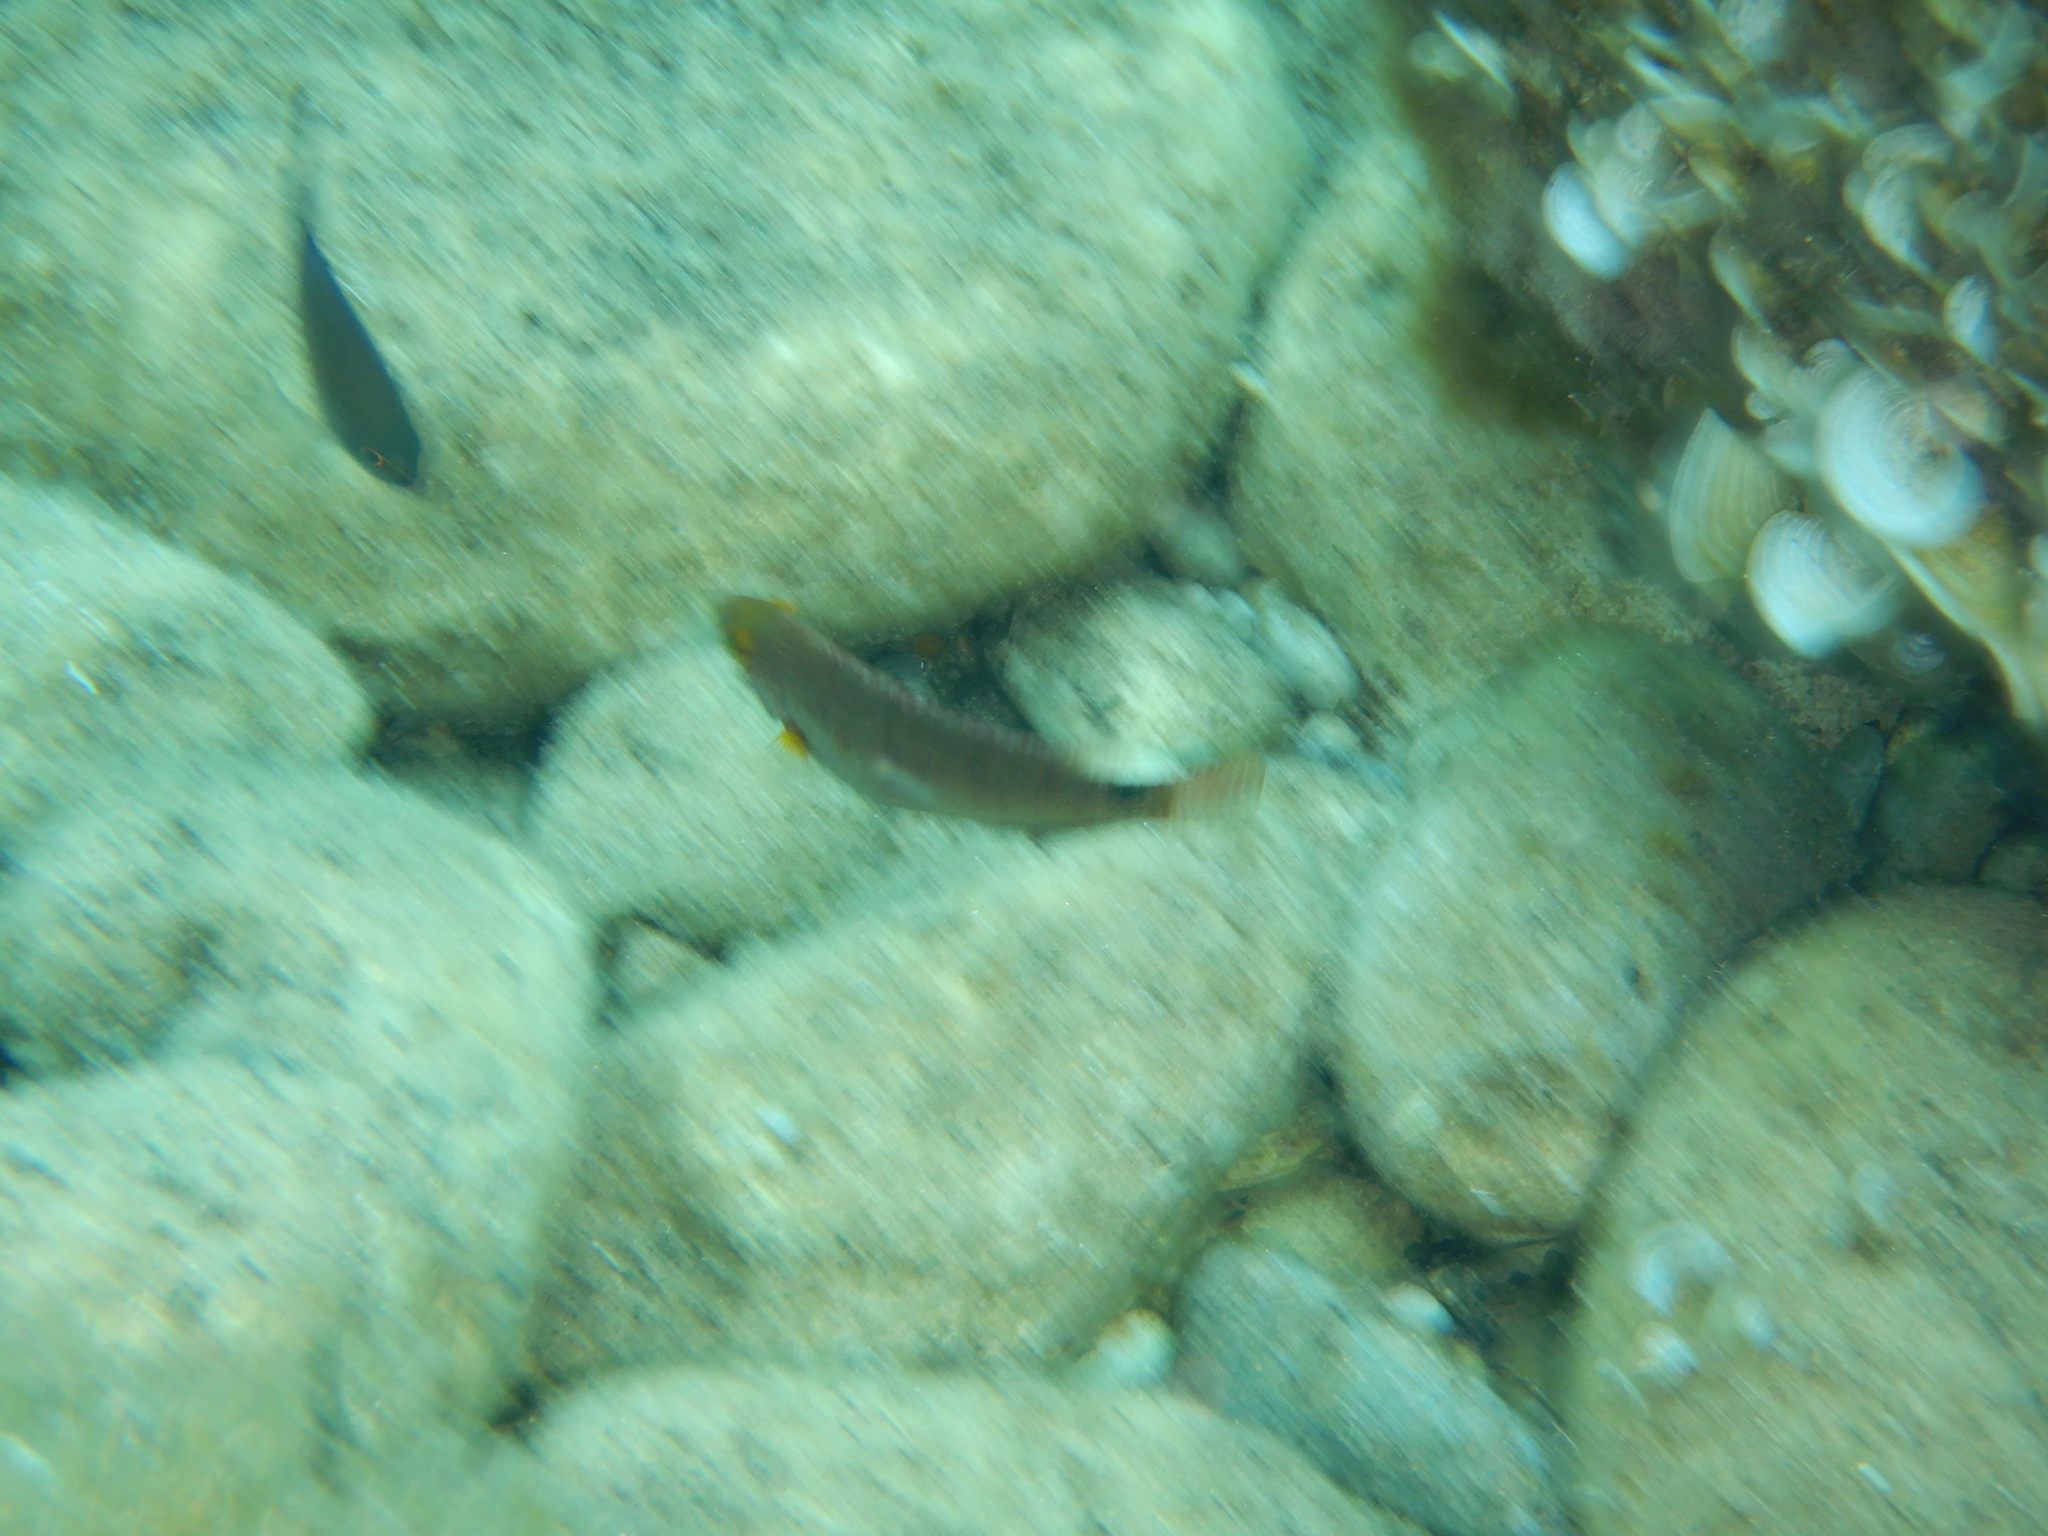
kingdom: Animalia
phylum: Chordata
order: Perciformes
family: Labridae
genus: Symphodus
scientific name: Symphodus mediterraneus
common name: Axillary wrasse
